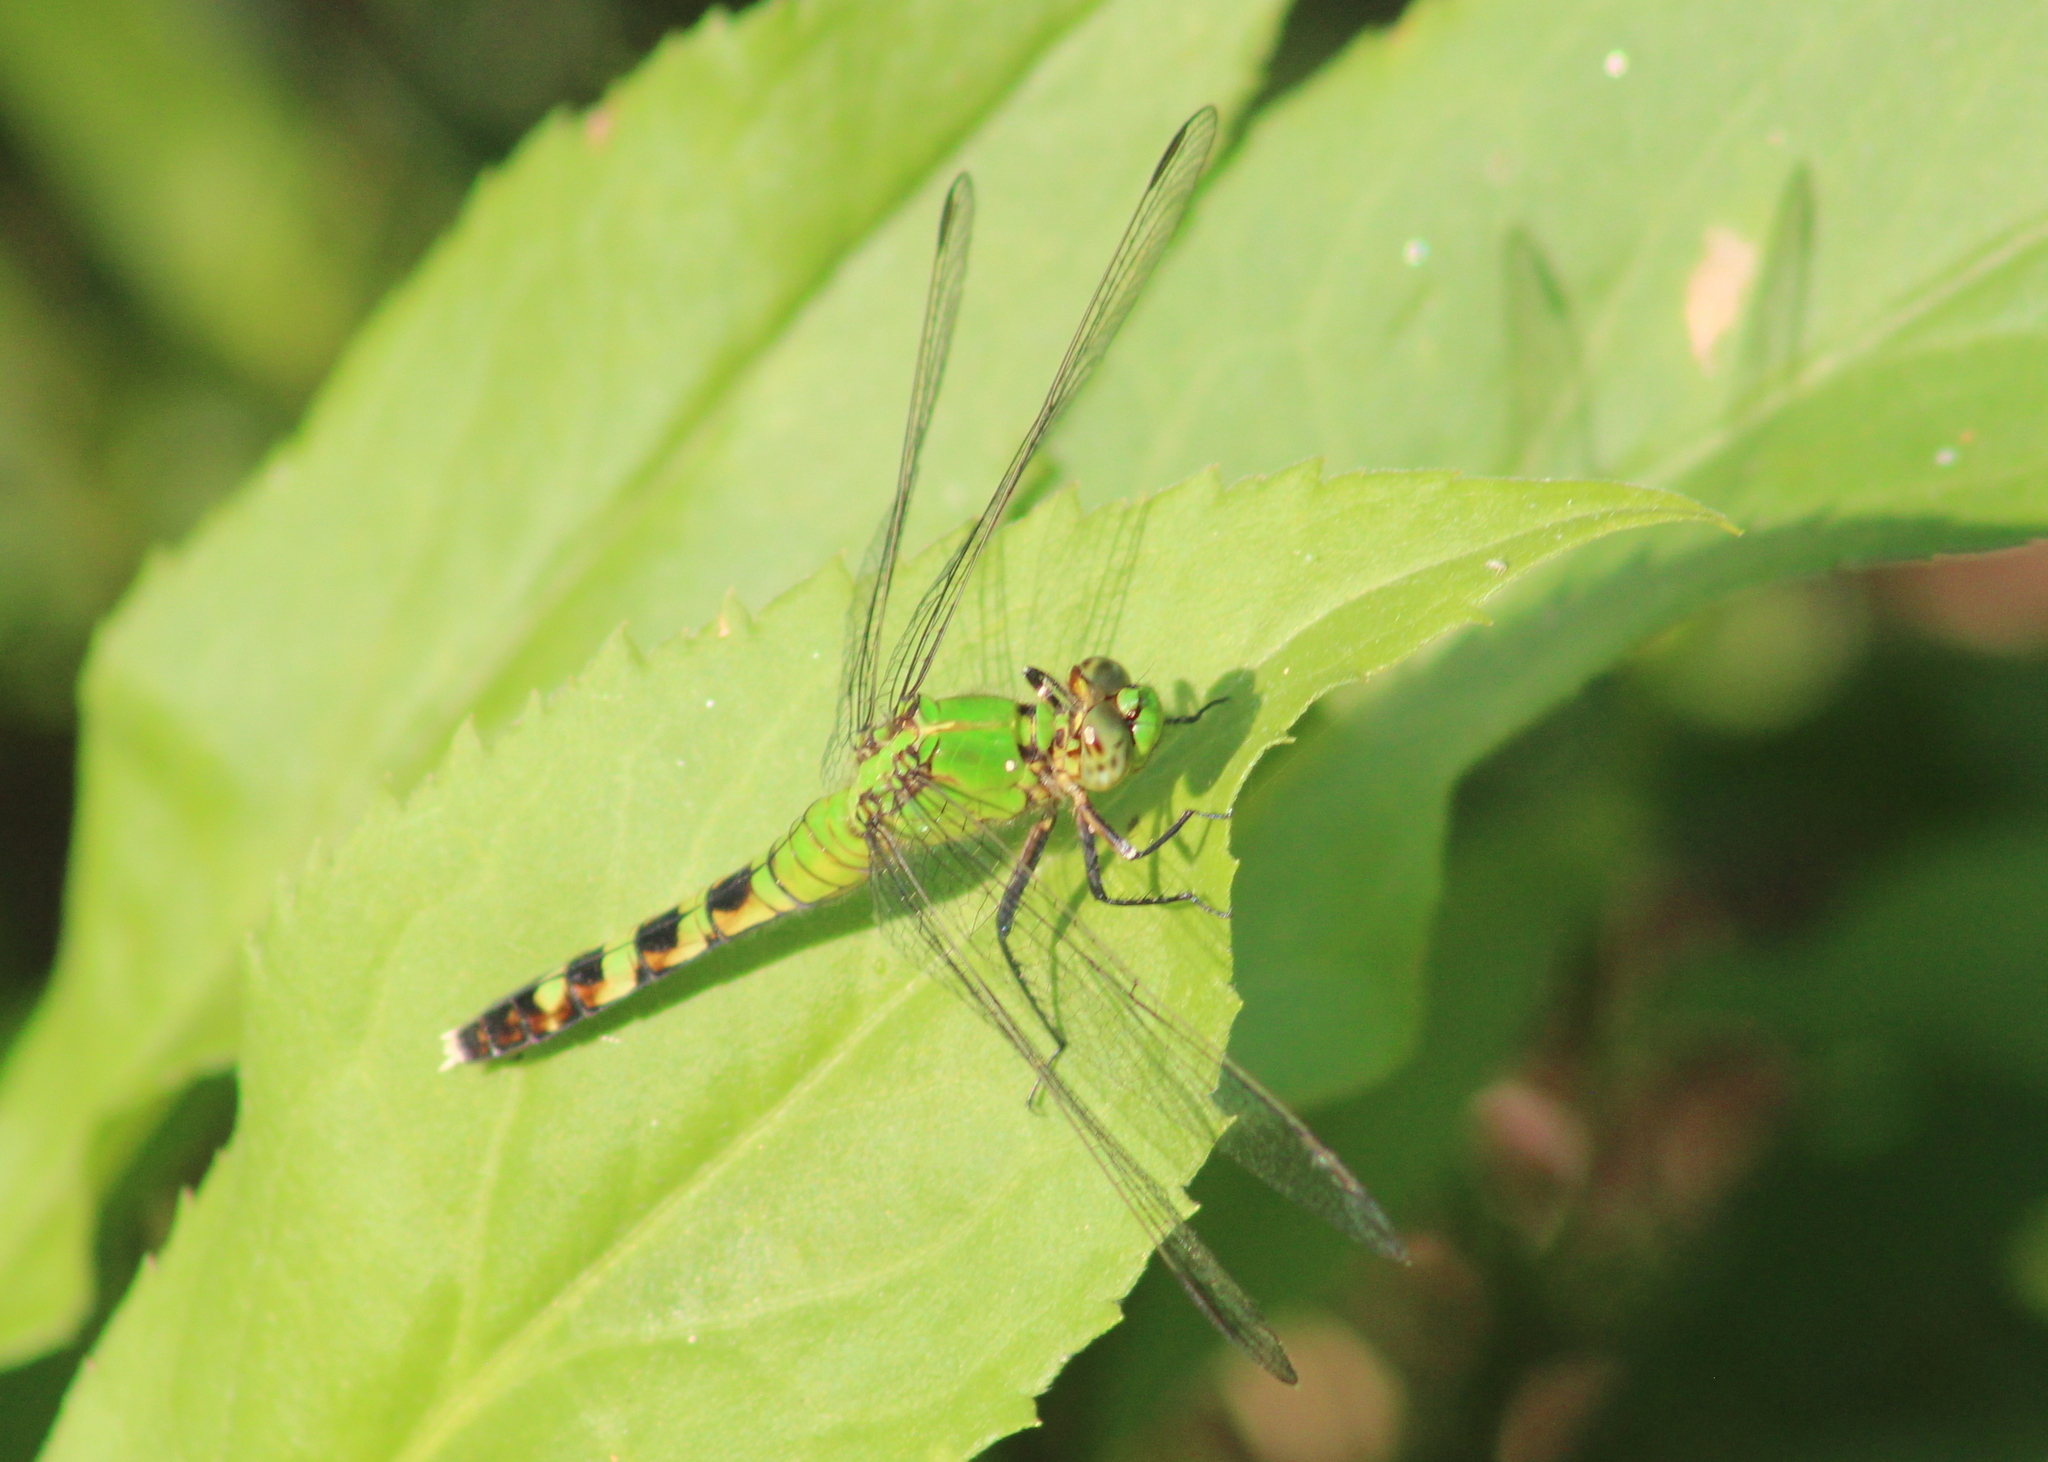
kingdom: Animalia
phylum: Arthropoda
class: Insecta
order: Odonata
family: Libellulidae
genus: Erythemis
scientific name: Erythemis simplicicollis
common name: Eastern pondhawk
